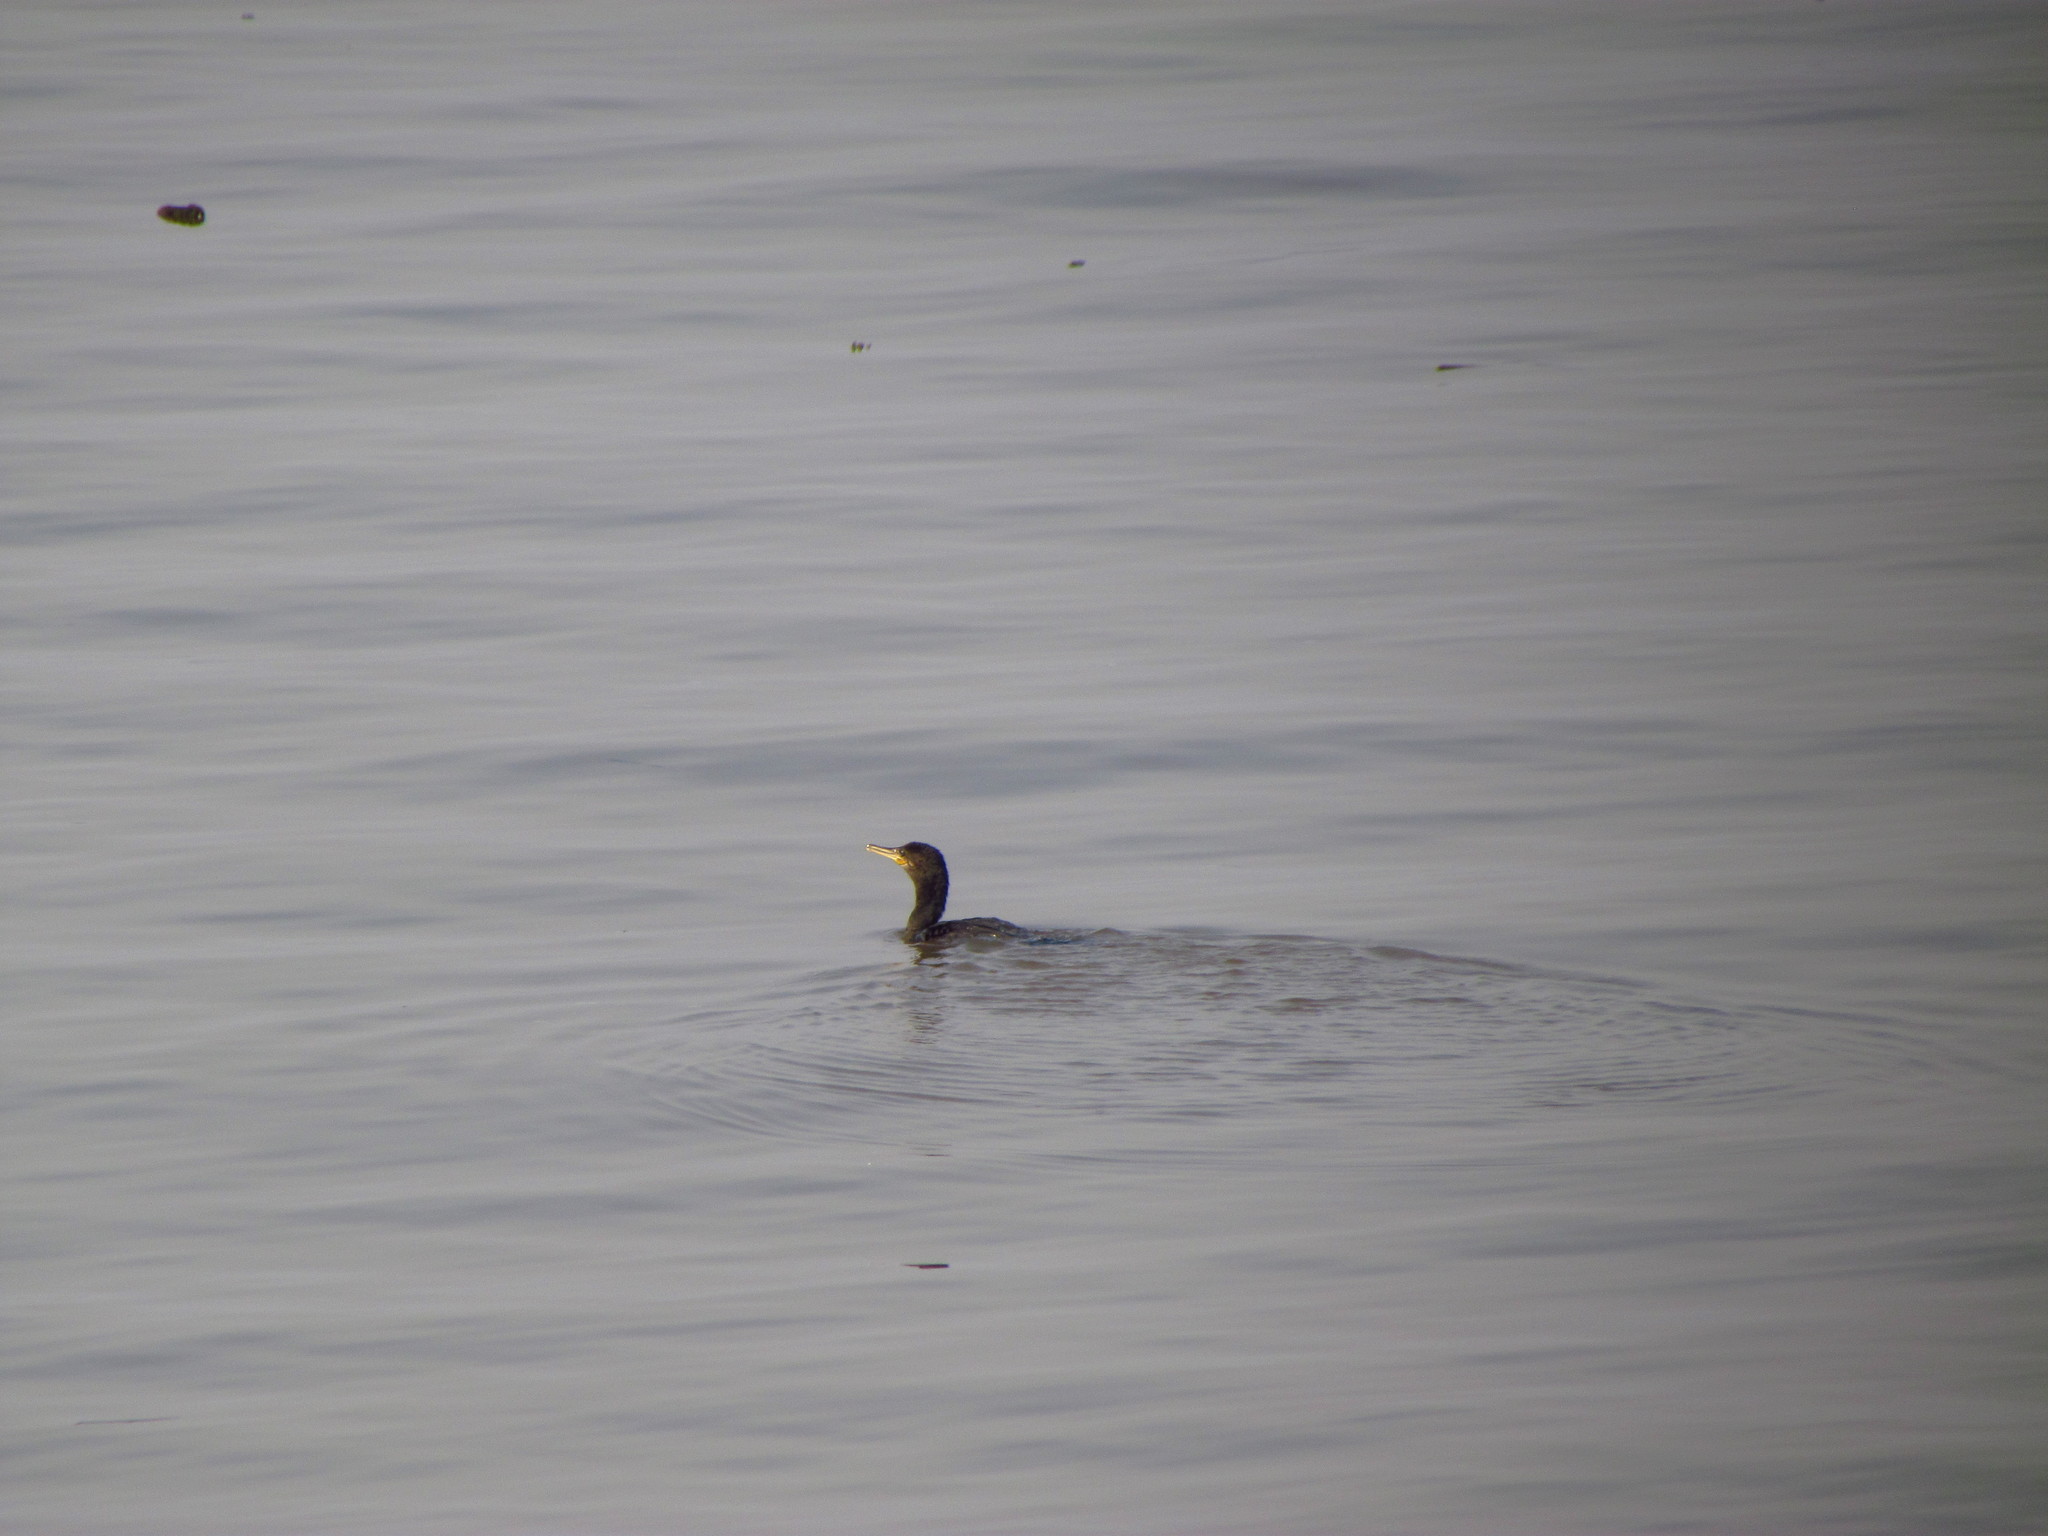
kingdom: Animalia
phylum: Chordata
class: Aves
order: Suliformes
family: Phalacrocoracidae
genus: Phalacrocorax
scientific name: Phalacrocorax brasilianus
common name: Neotropic cormorant
